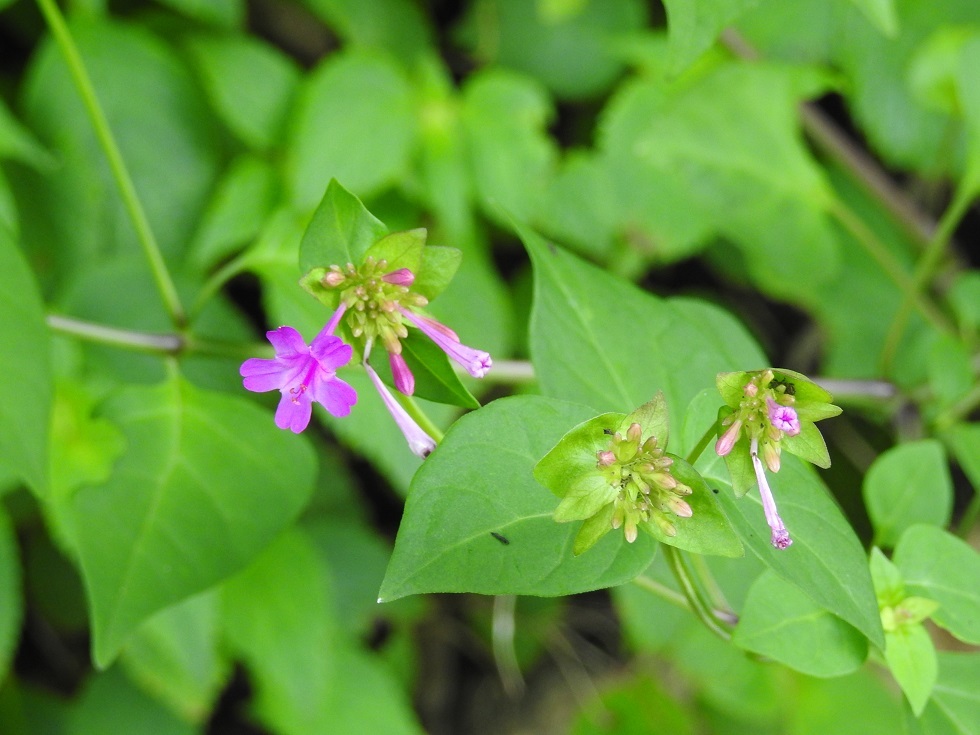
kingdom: Plantae
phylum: Tracheophyta
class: Magnoliopsida
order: Caryophyllales
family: Nyctaginaceae
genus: Mirabilis
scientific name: Mirabilis sanguinea
